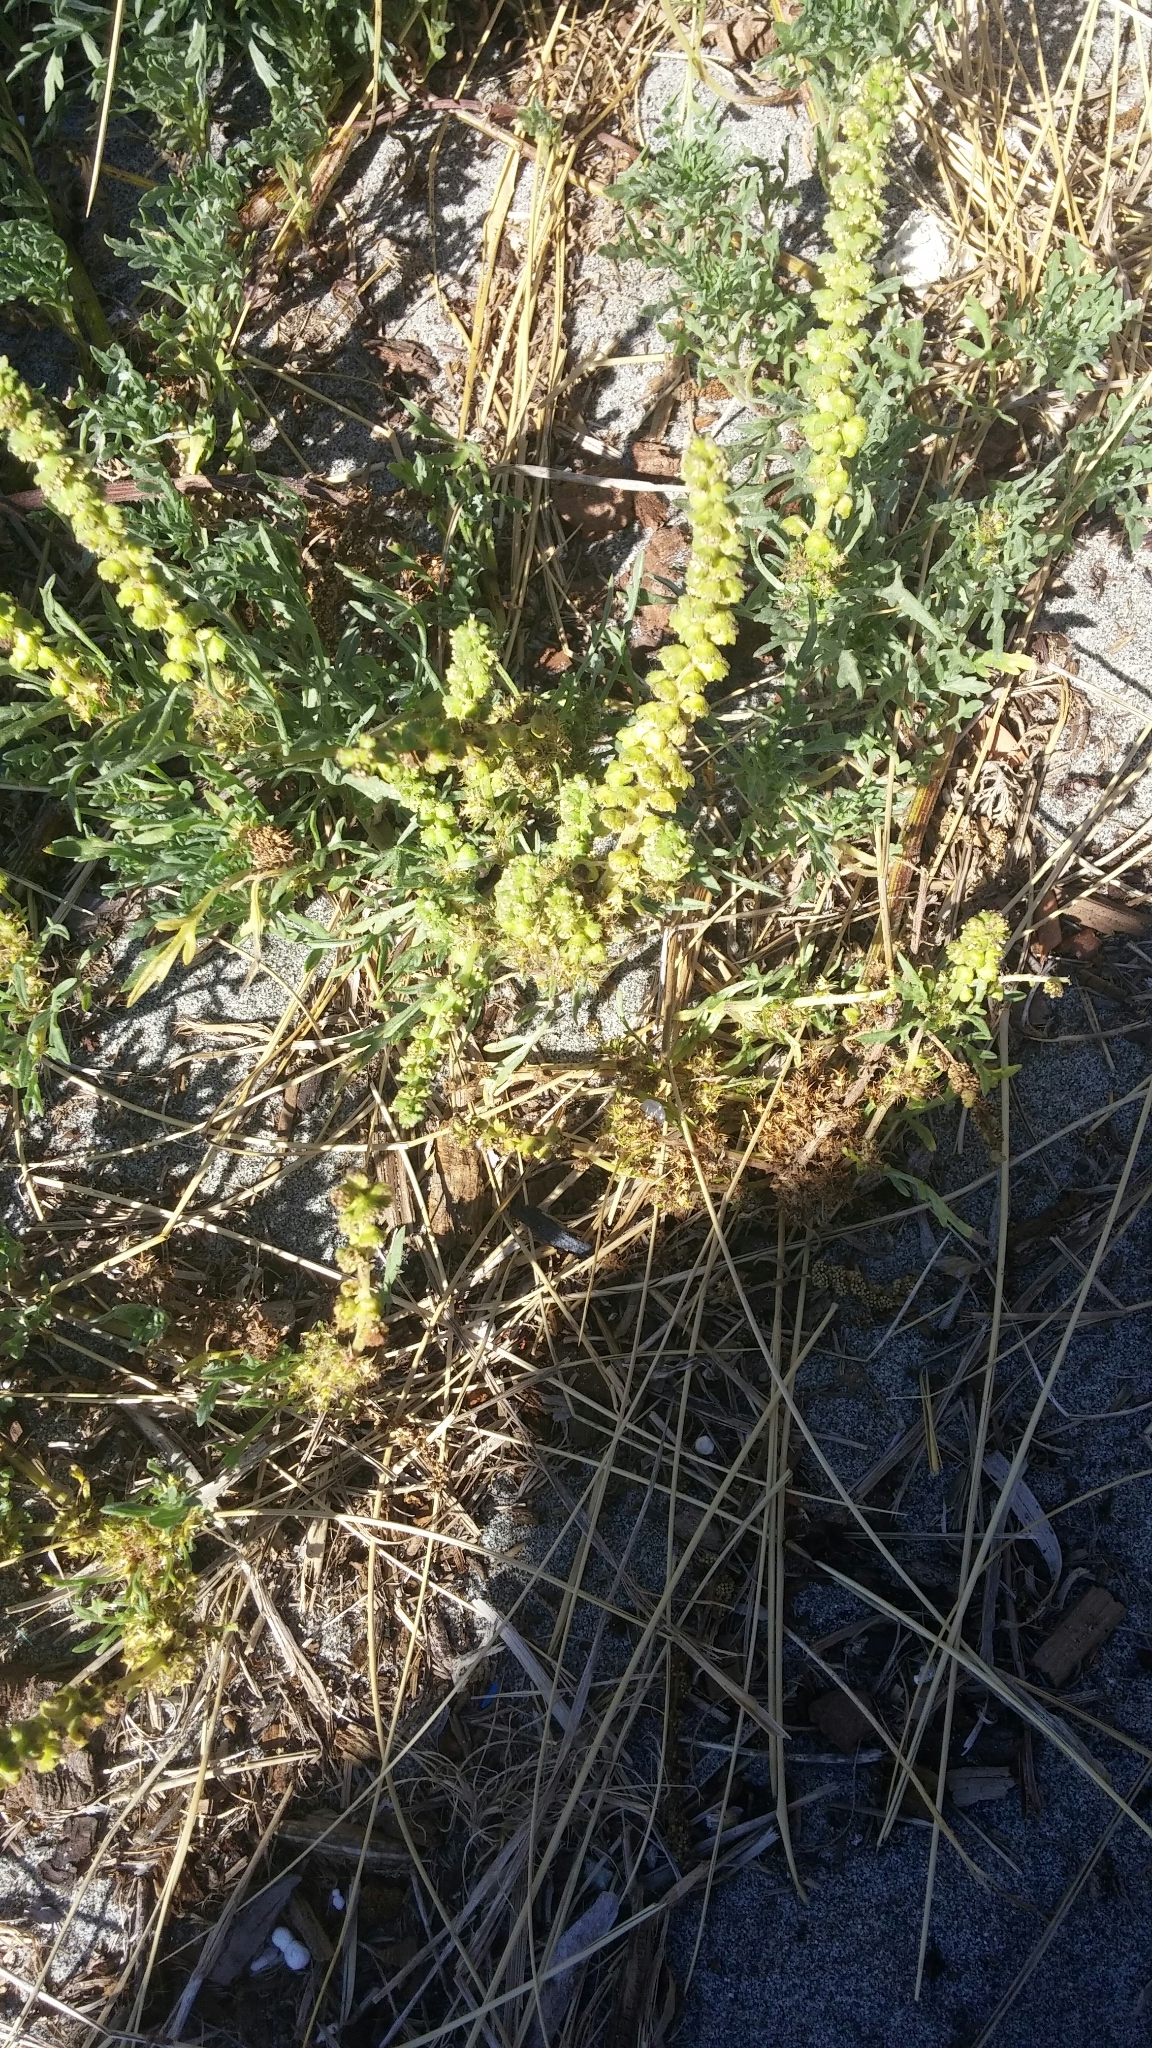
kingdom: Plantae
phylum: Tracheophyta
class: Magnoliopsida
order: Asterales
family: Asteraceae
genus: Ambrosia
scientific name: Ambrosia chamissonis
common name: Beachbur
